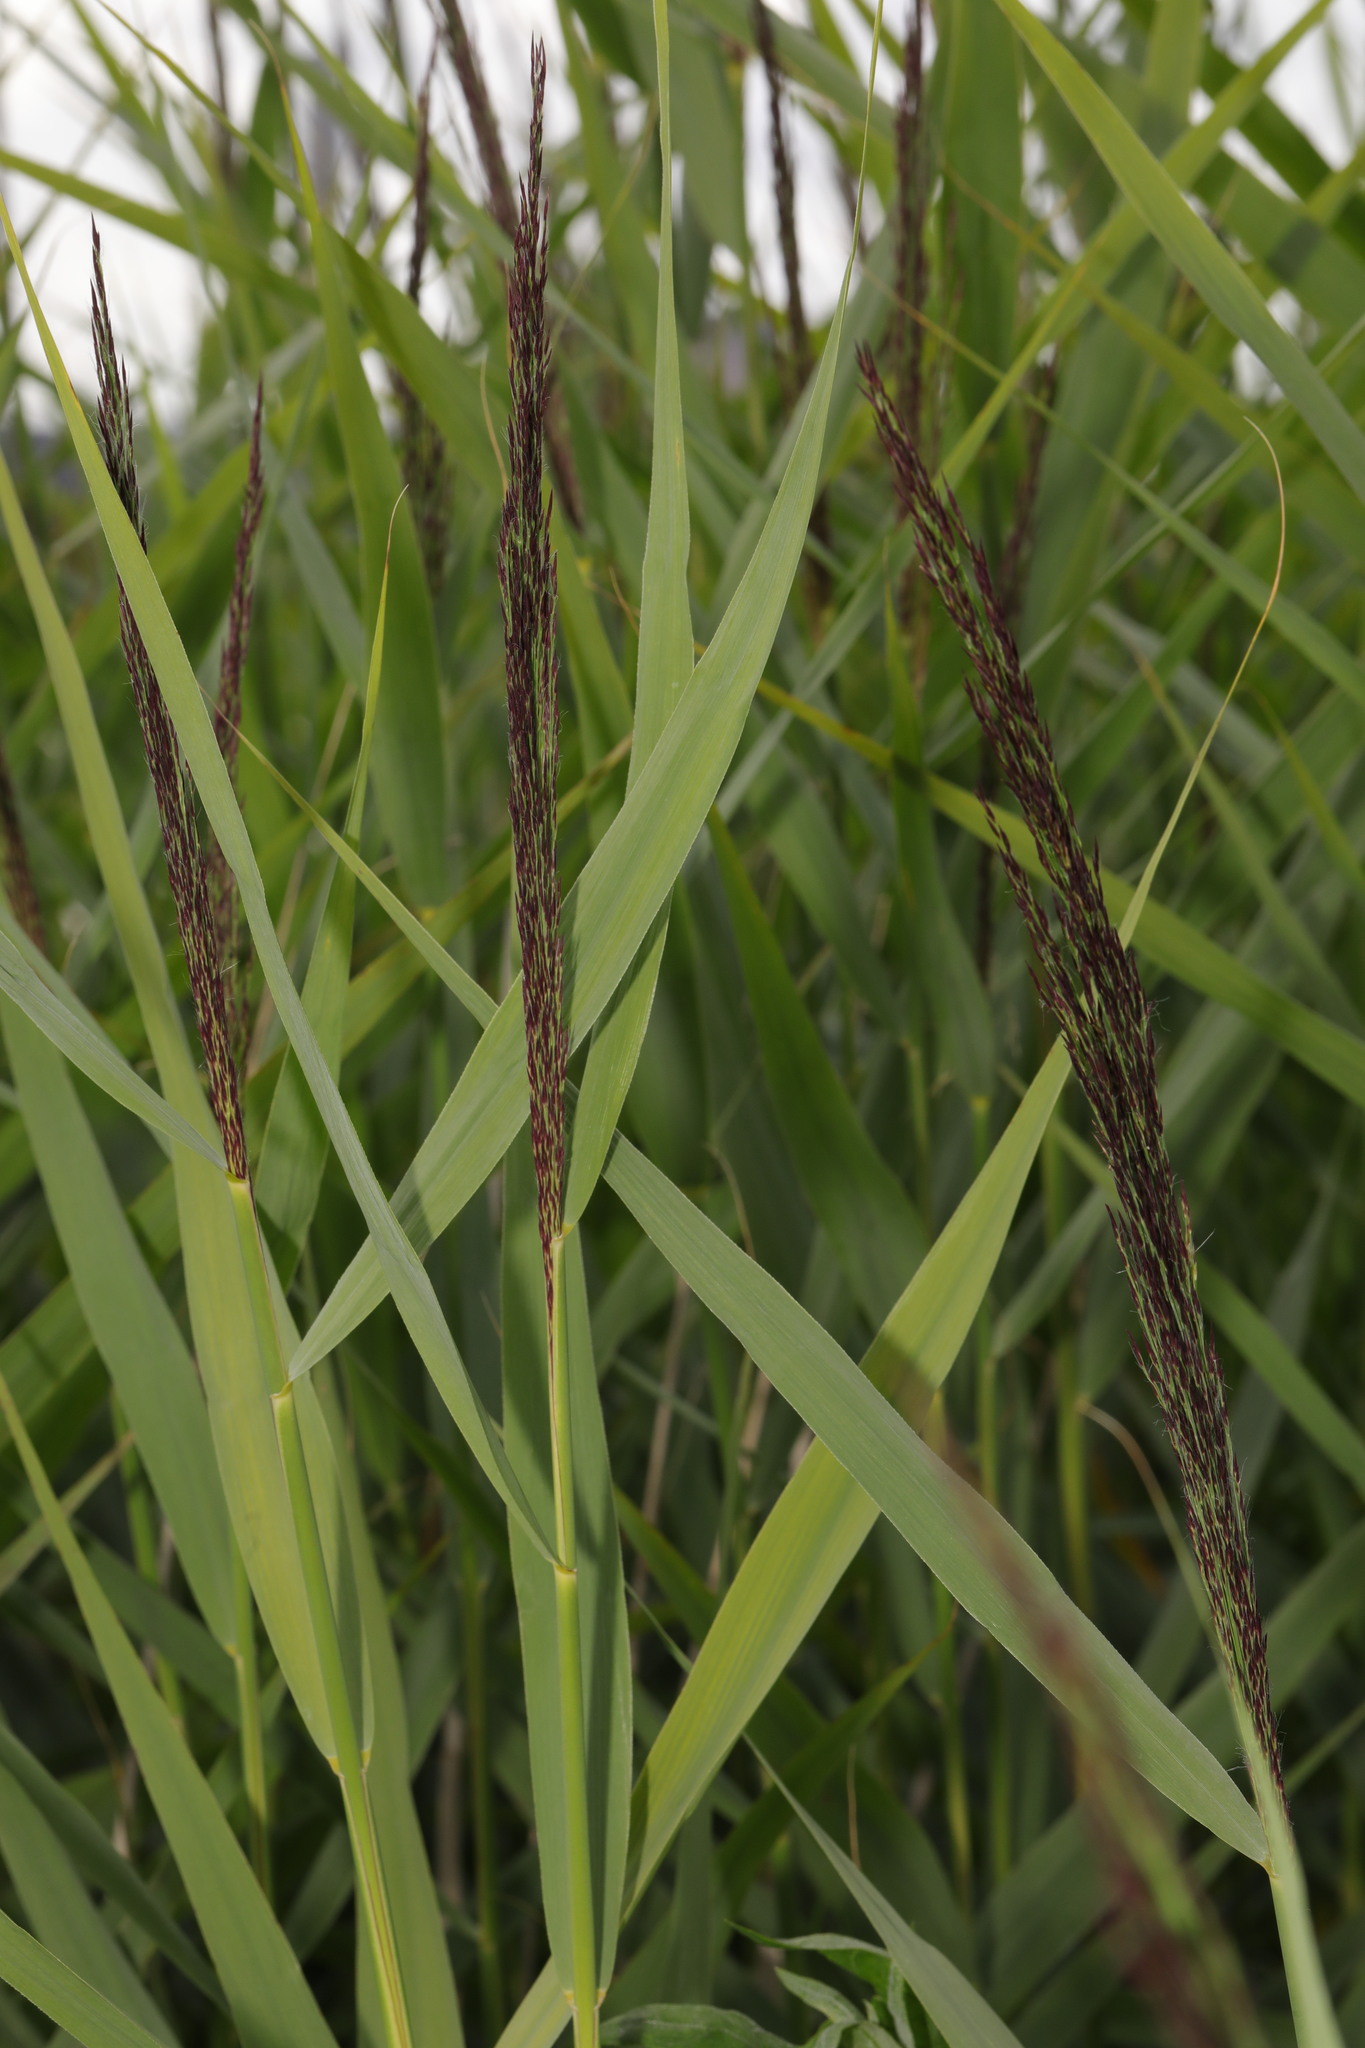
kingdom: Plantae
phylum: Tracheophyta
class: Liliopsida
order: Poales
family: Poaceae
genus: Phragmites
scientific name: Phragmites australis
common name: Common reed
